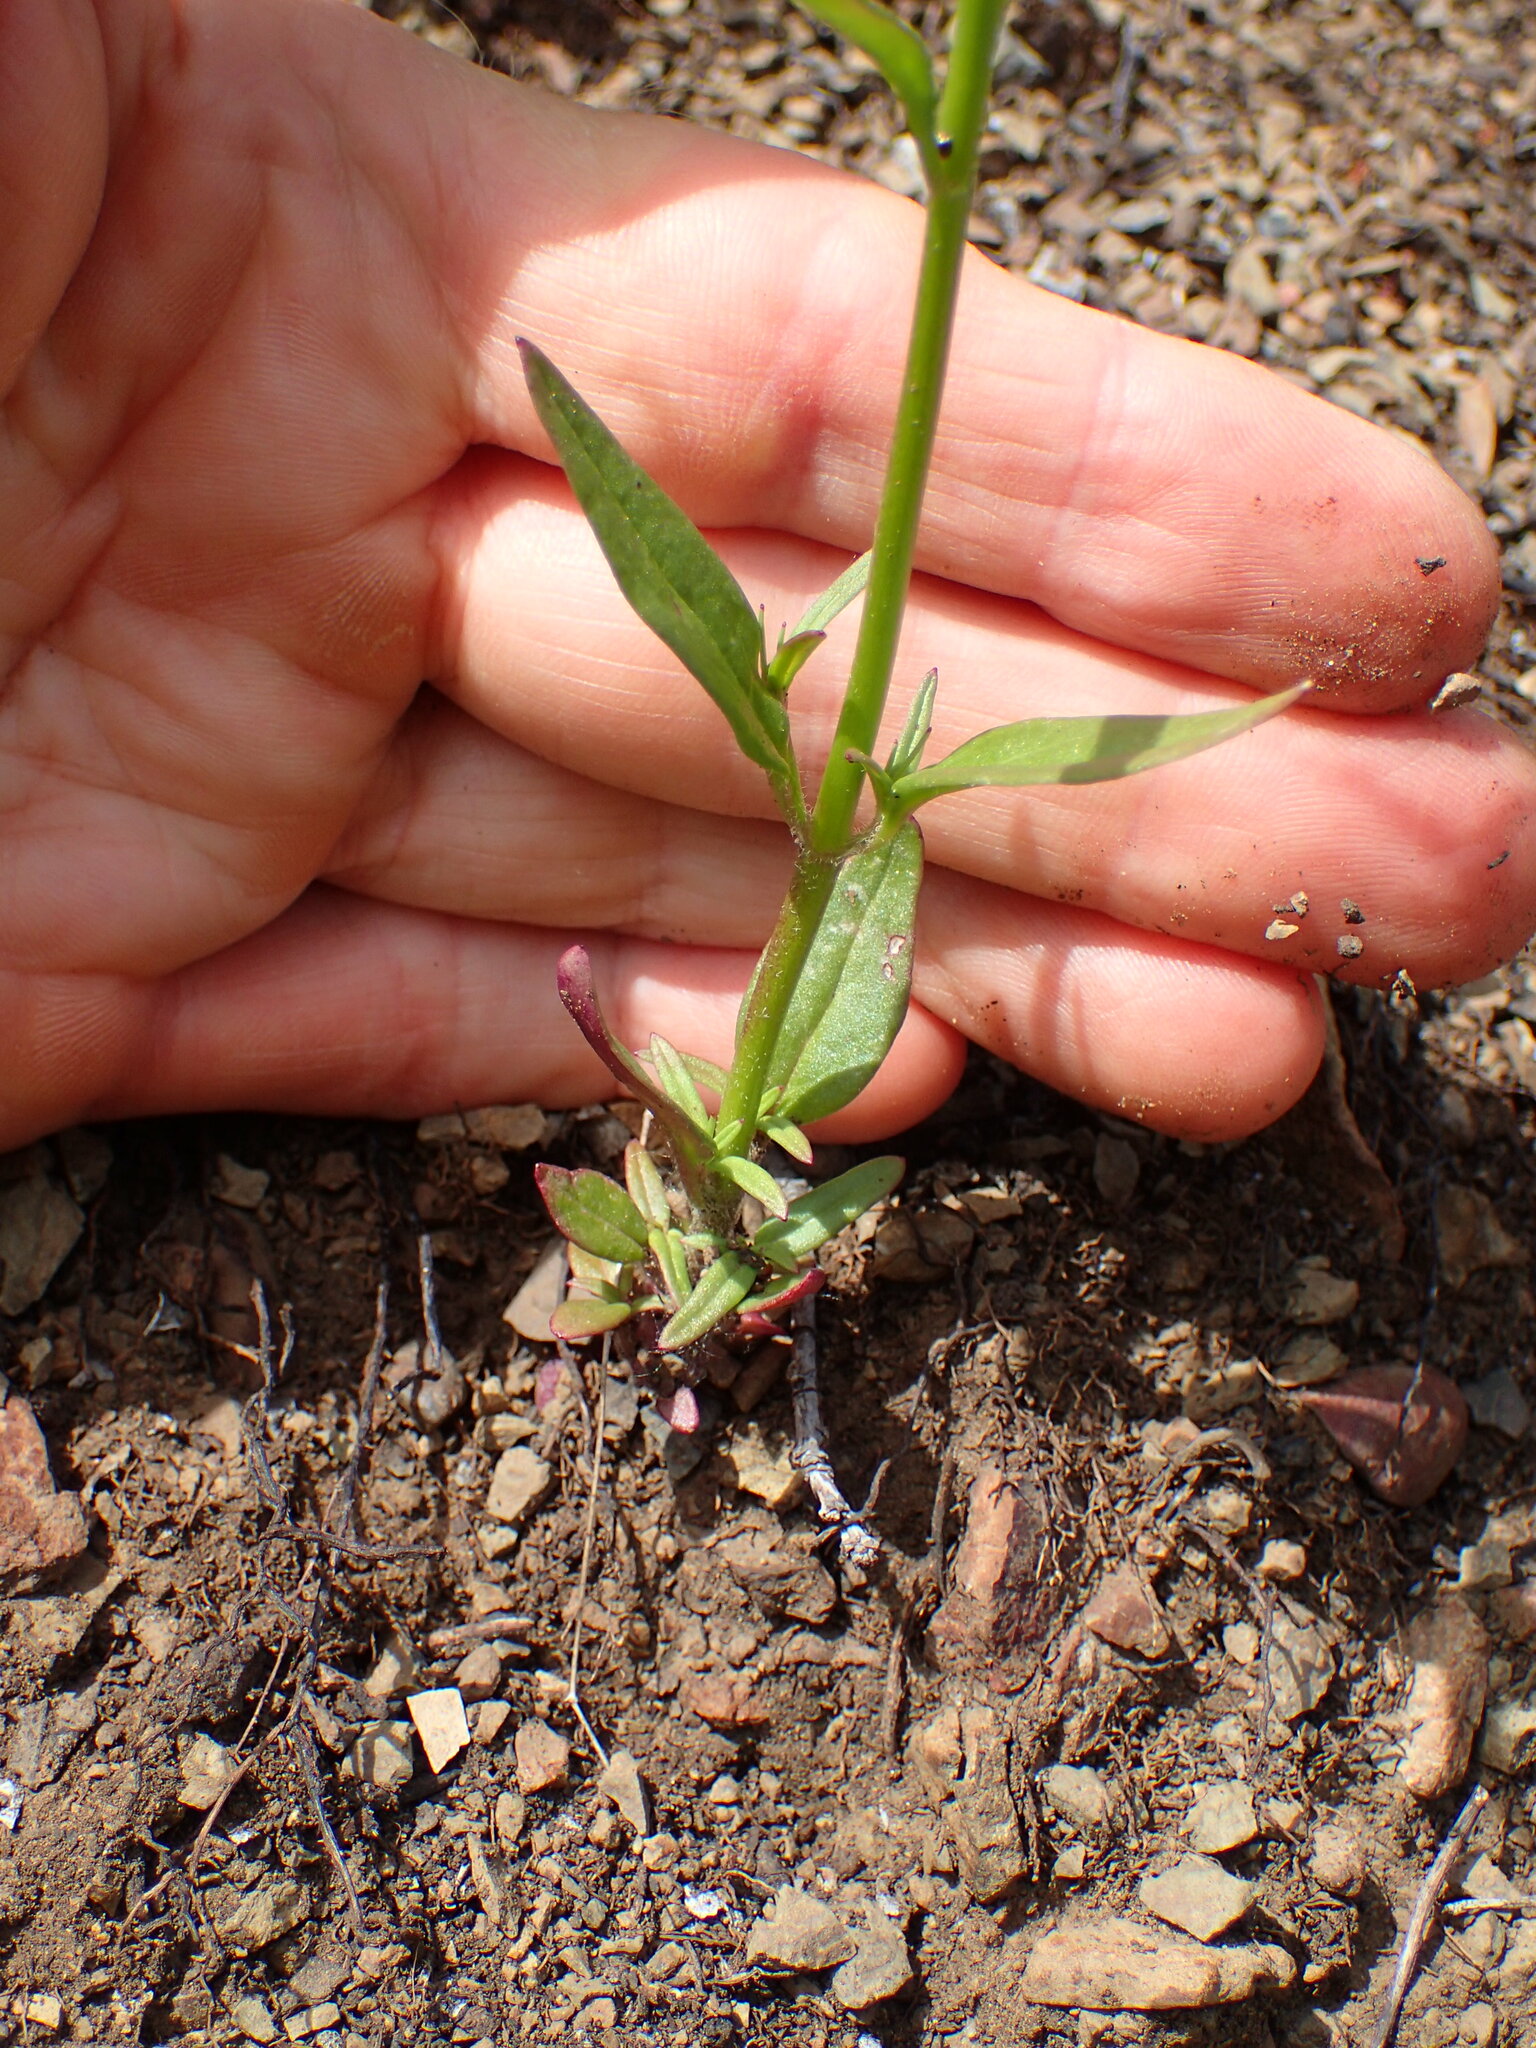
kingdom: Plantae
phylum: Tracheophyta
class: Magnoliopsida
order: Lamiales
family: Plantaginaceae
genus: Neogaerrhinum
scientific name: Neogaerrhinum strictum
